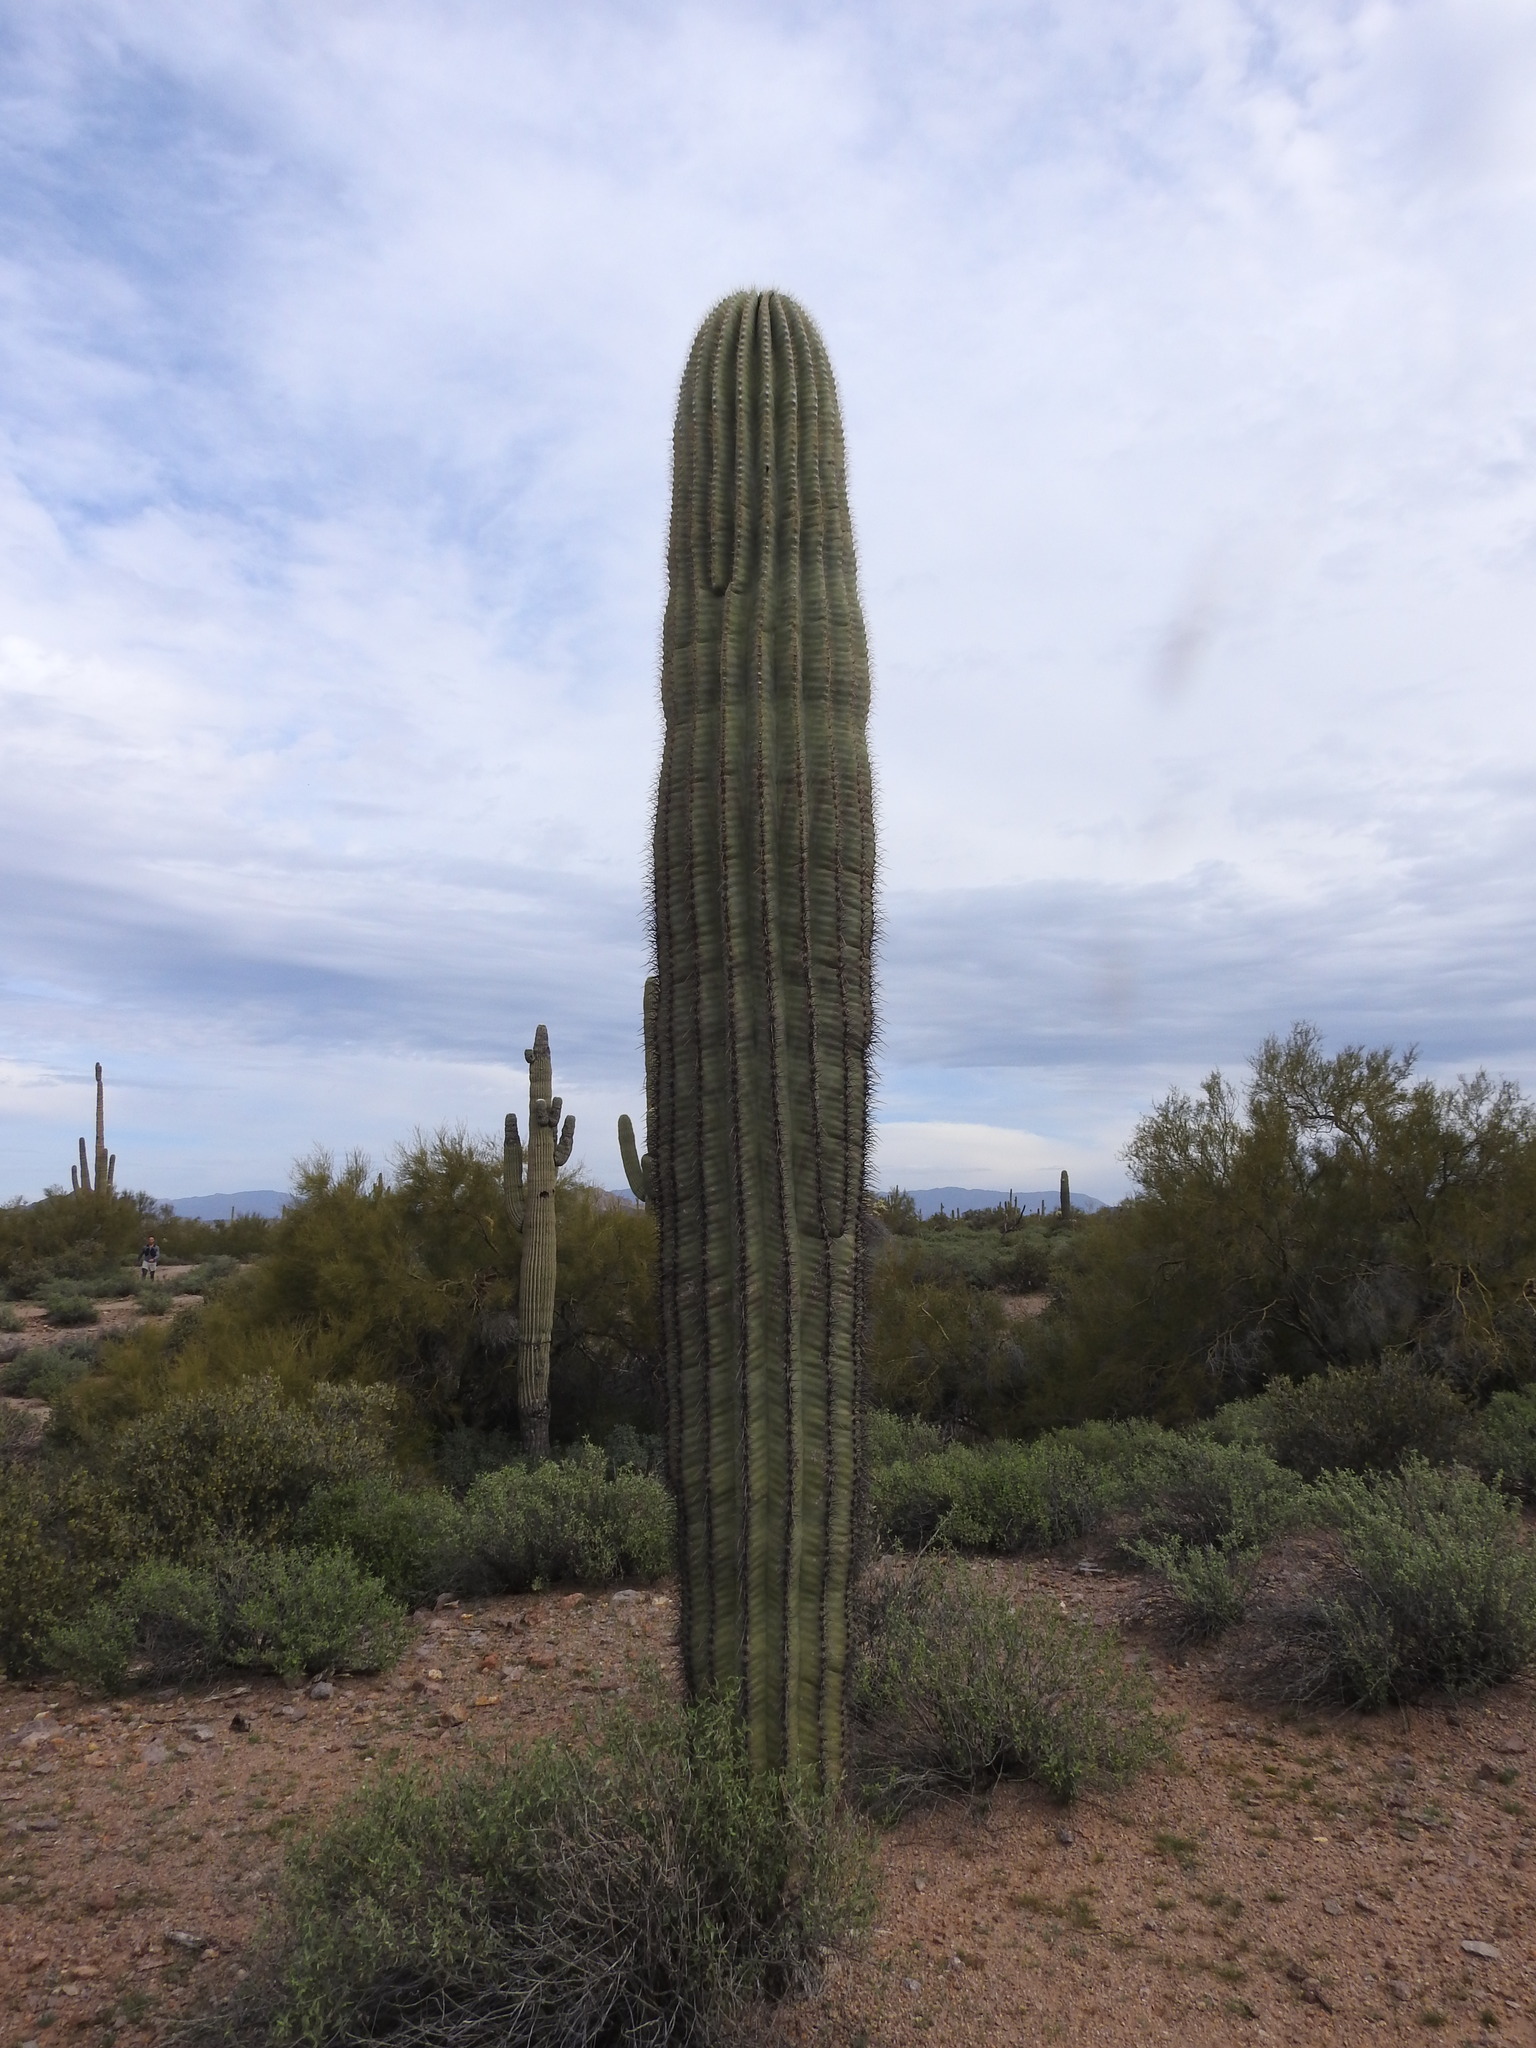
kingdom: Plantae
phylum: Tracheophyta
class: Magnoliopsida
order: Caryophyllales
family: Cactaceae
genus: Carnegiea
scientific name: Carnegiea gigantea
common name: Saguaro
